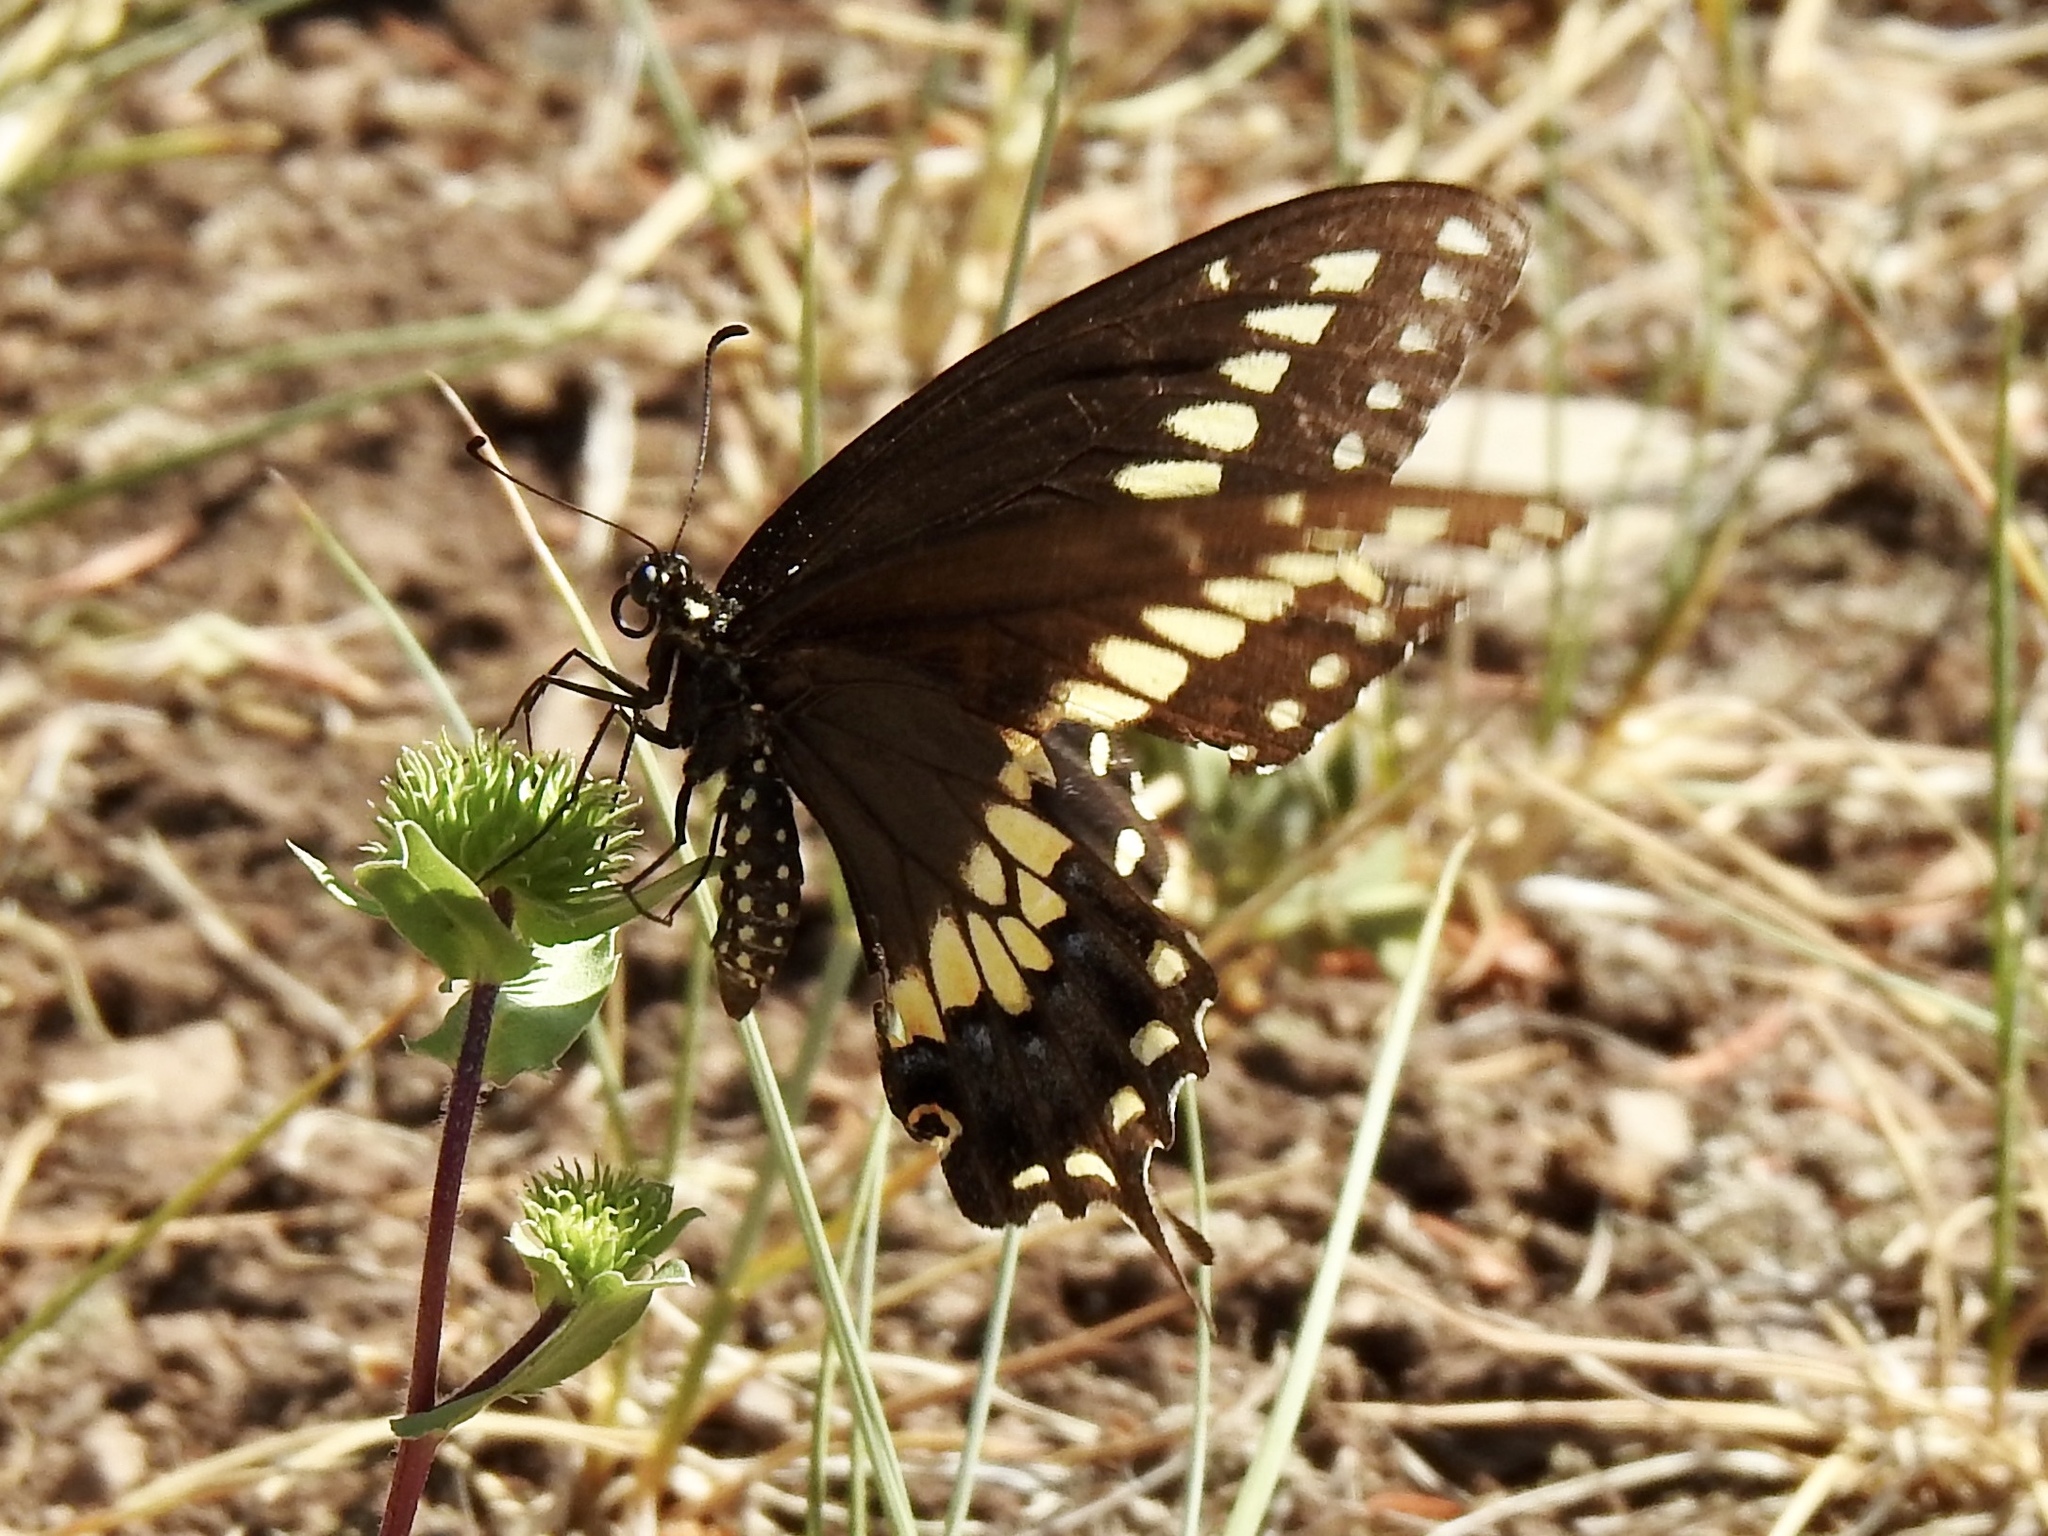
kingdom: Animalia
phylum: Arthropoda
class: Insecta
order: Lepidoptera
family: Papilionidae
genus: Papilio
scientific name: Papilio polyxenes
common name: Black swallowtail
